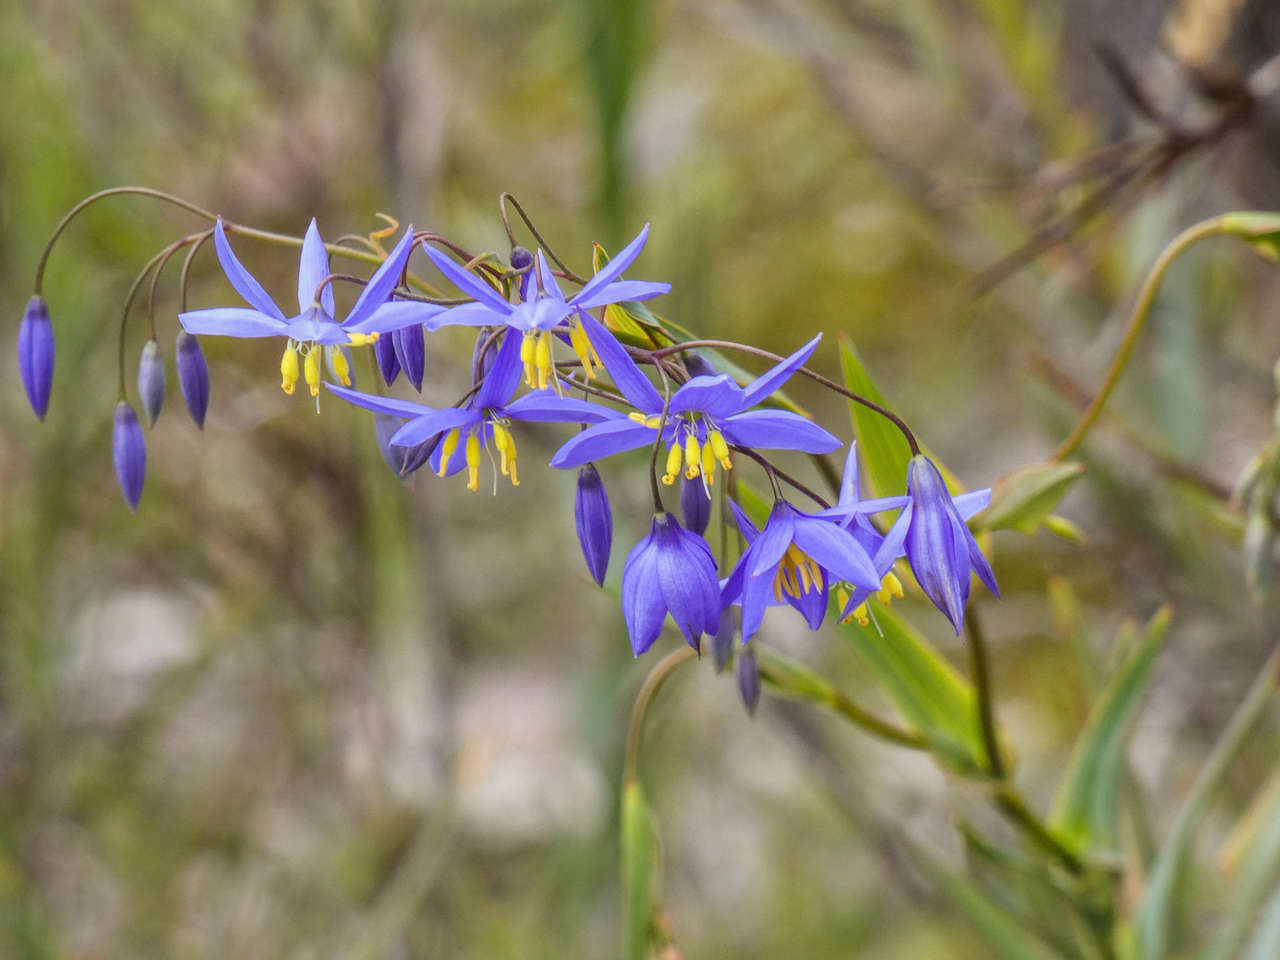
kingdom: Plantae
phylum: Tracheophyta
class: Liliopsida
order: Asparagales
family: Asphodelaceae
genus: Stypandra
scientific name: Stypandra glauca
